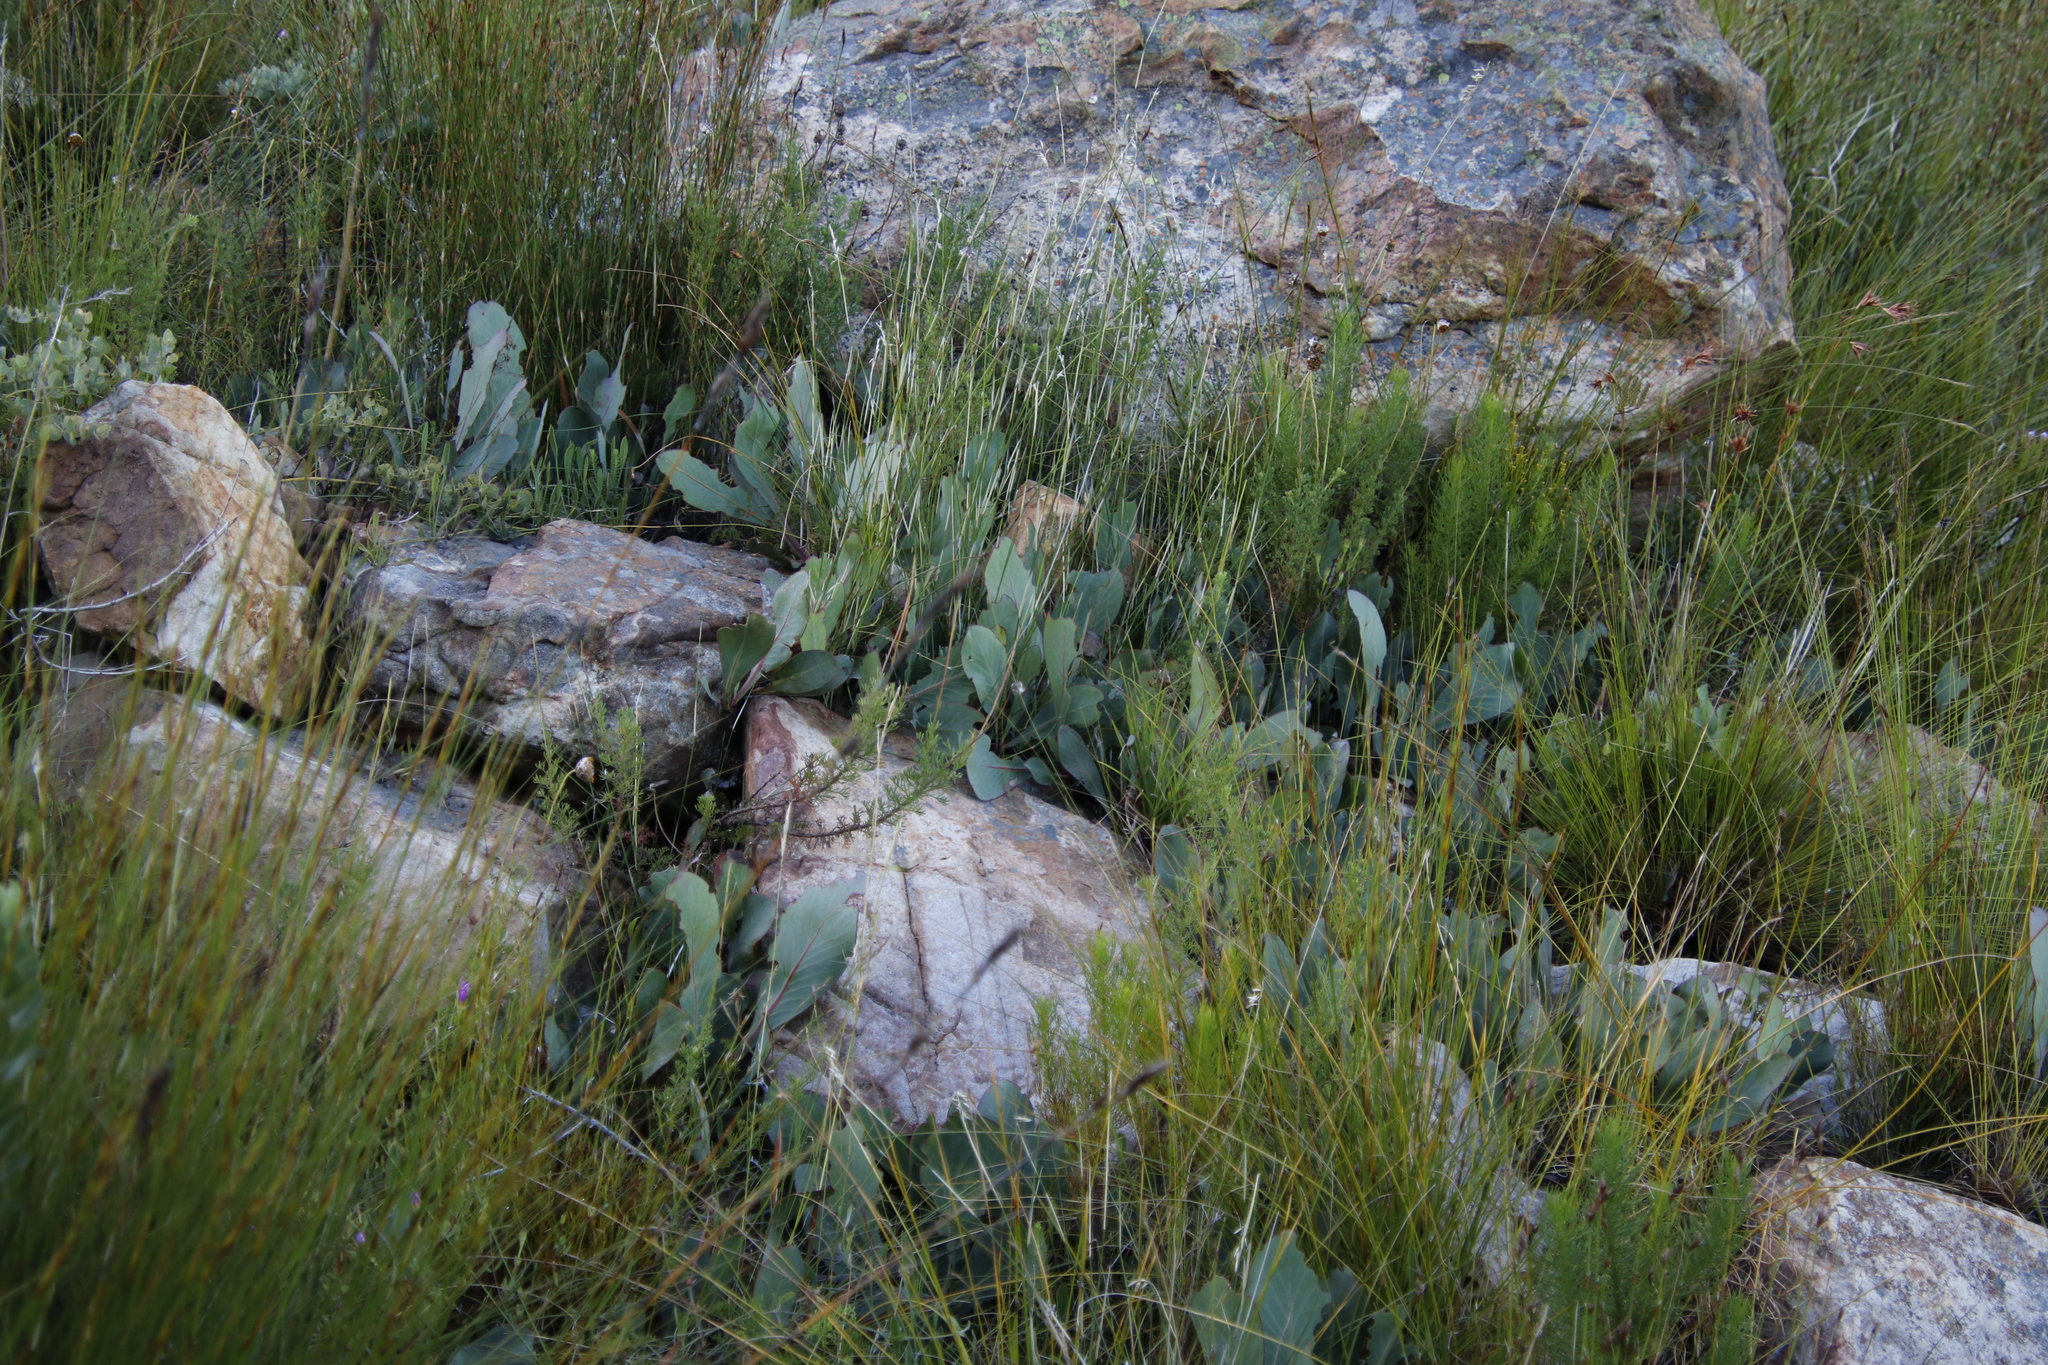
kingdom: Plantae
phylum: Tracheophyta
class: Magnoliopsida
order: Proteales
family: Proteaceae
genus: Protea
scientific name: Protea acaulos
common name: Common ground sugarbush
